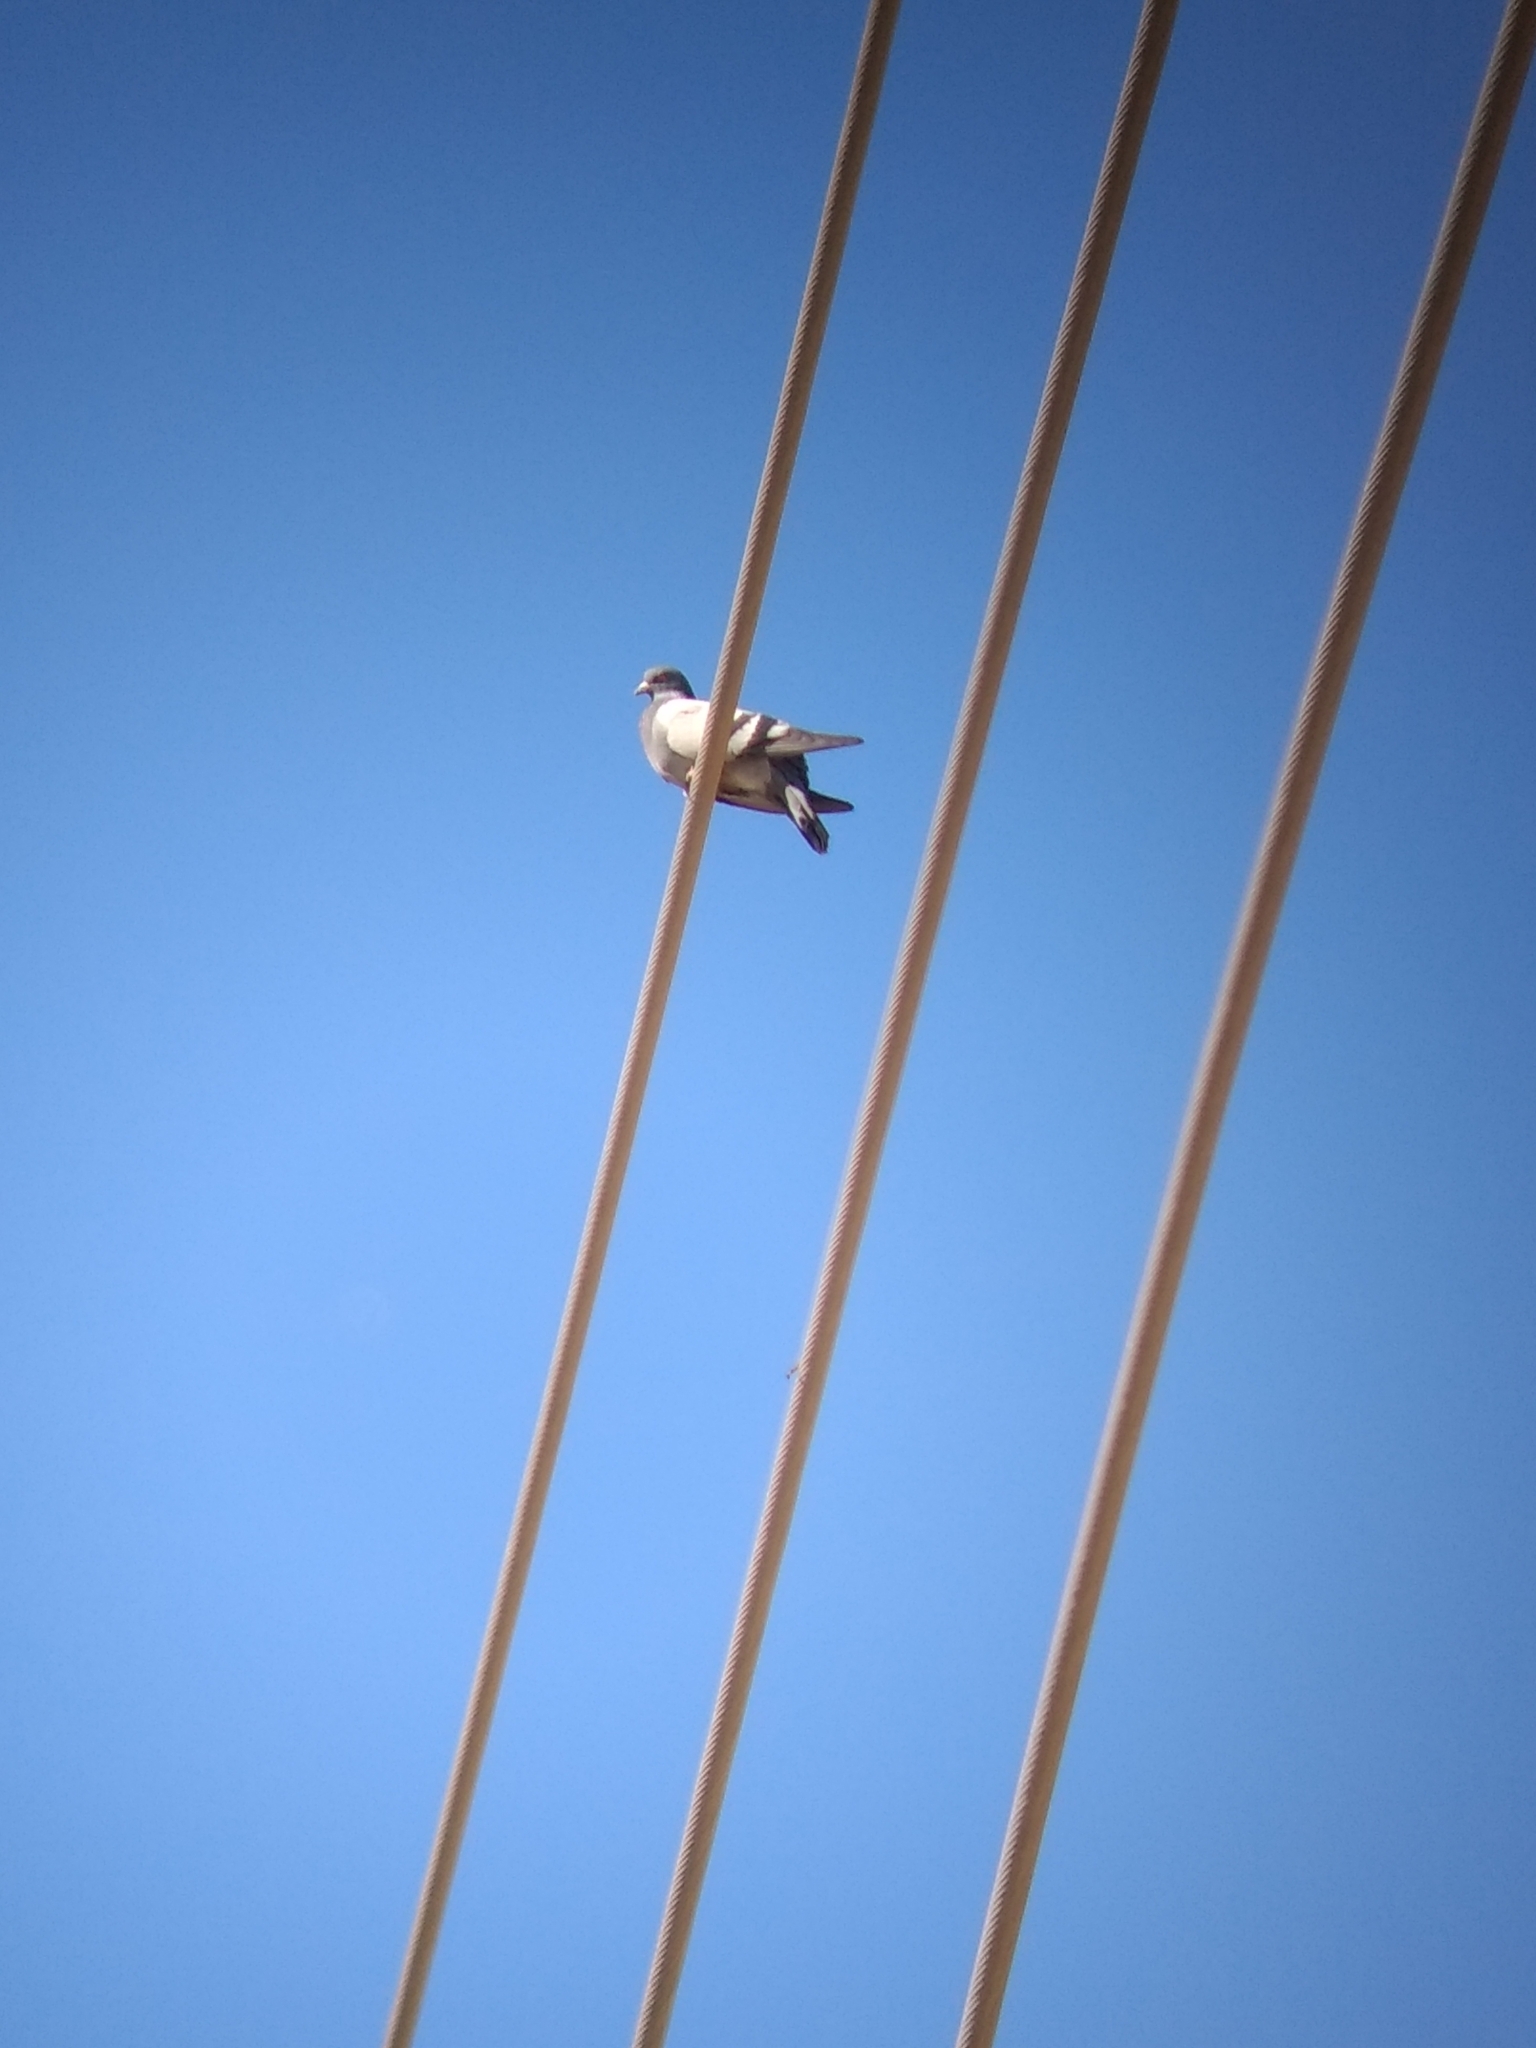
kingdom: Animalia
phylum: Chordata
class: Aves
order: Columbiformes
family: Columbidae
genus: Columba
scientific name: Columba livia
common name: Rock pigeon
